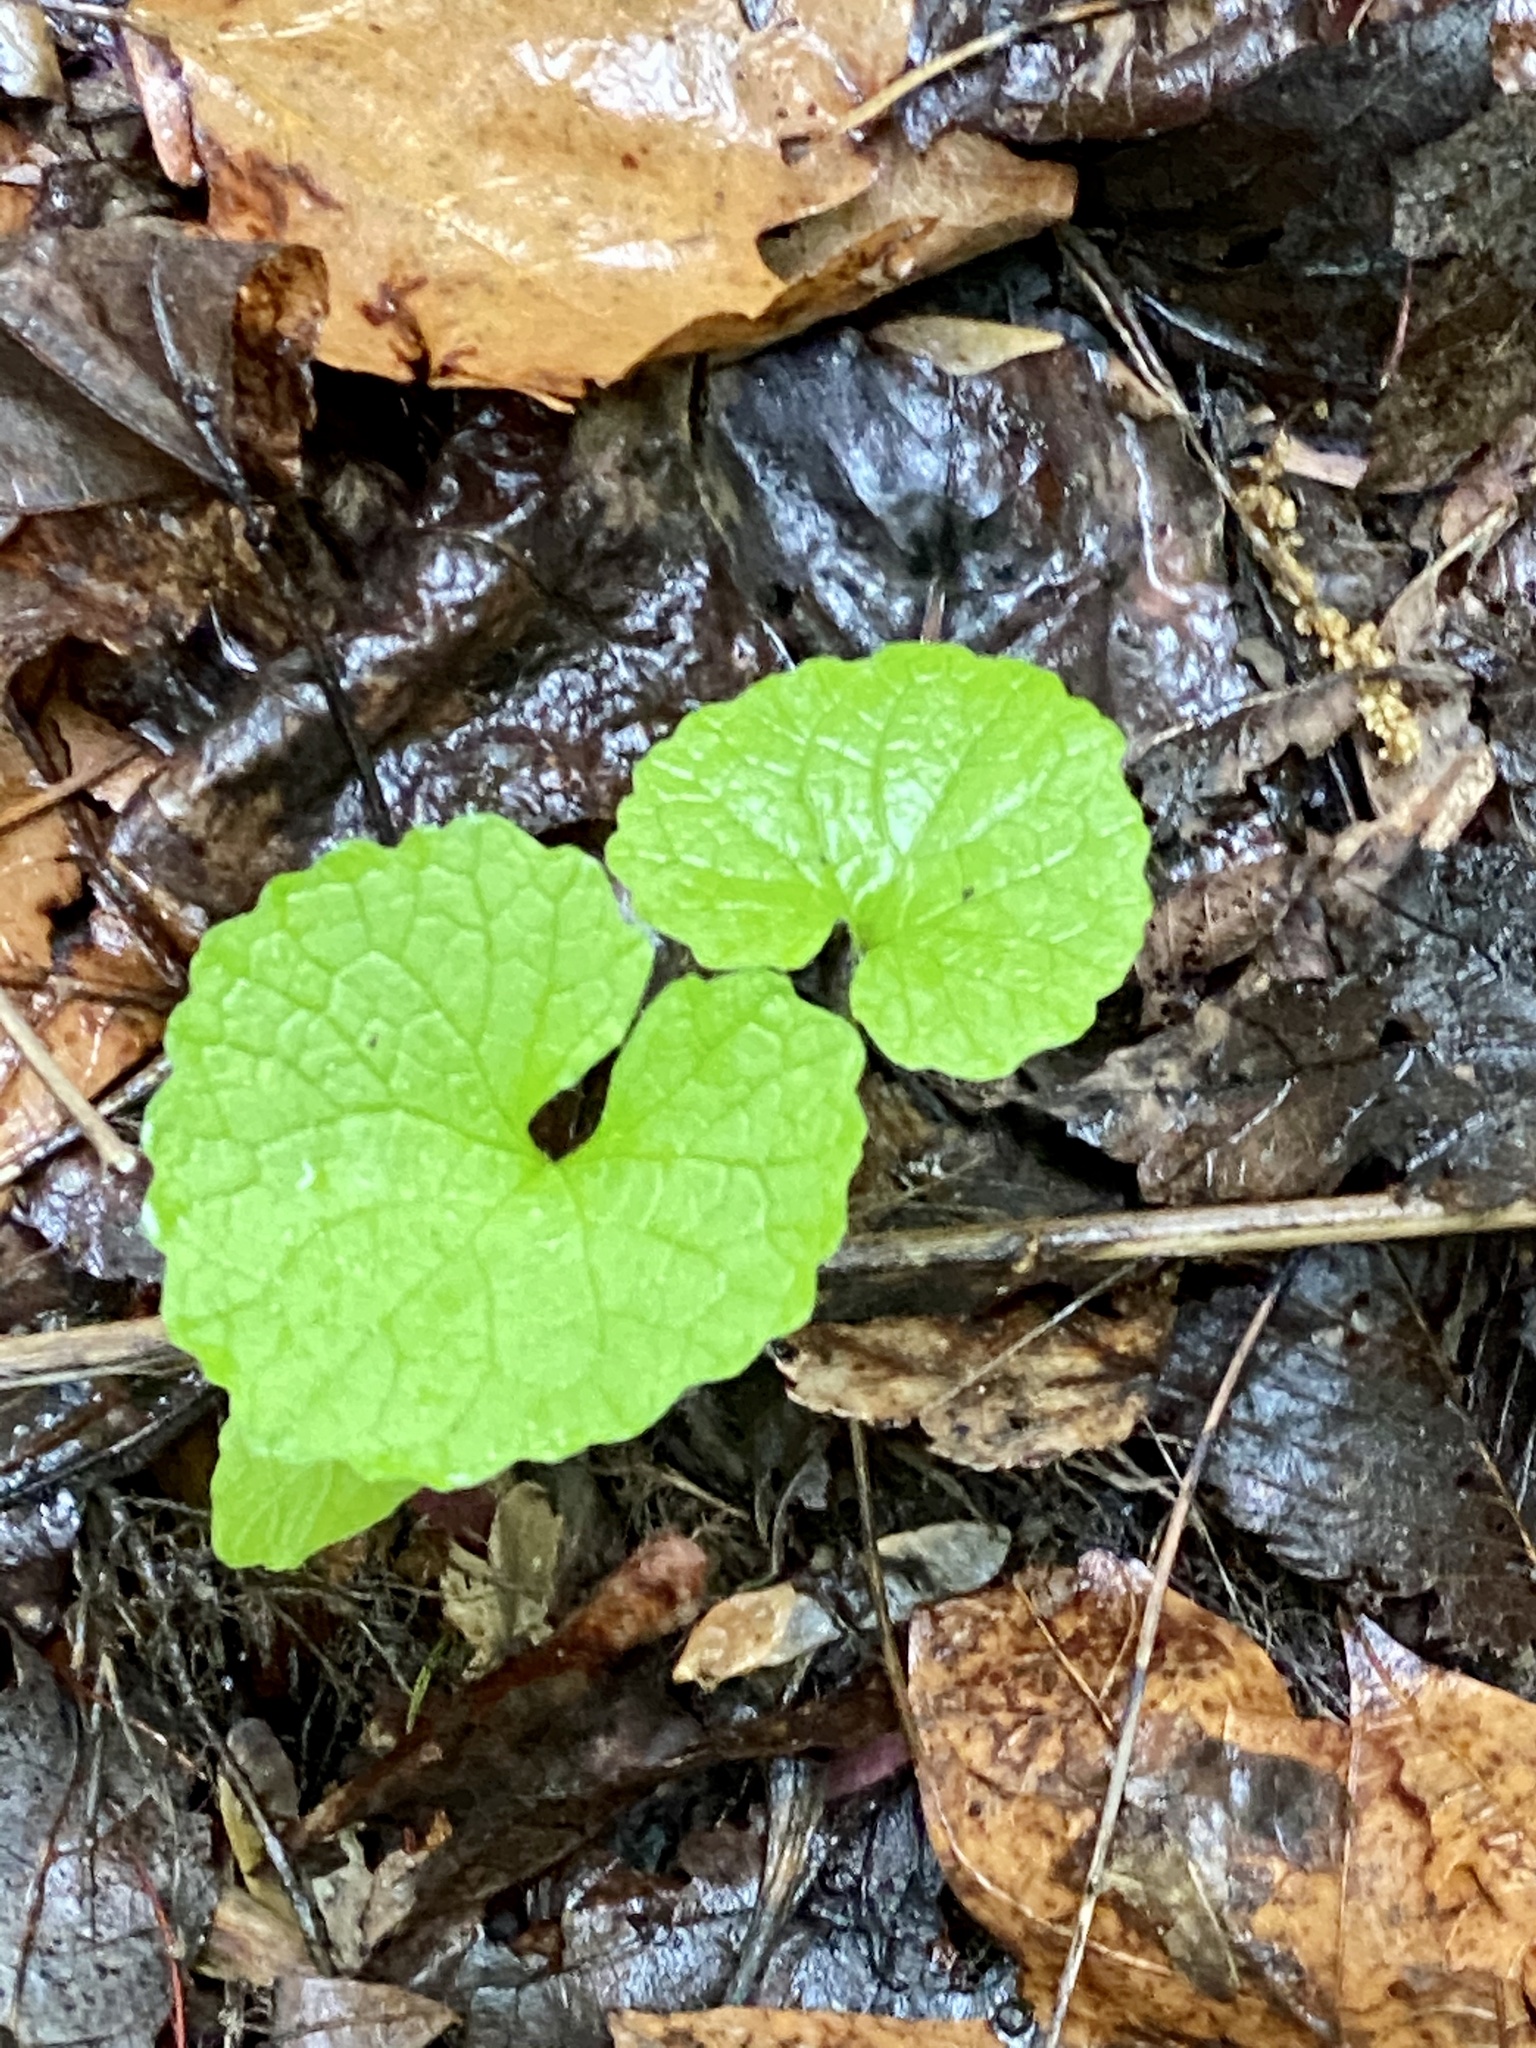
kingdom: Plantae
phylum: Tracheophyta
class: Magnoliopsida
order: Brassicales
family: Brassicaceae
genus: Alliaria
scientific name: Alliaria petiolata
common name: Garlic mustard
